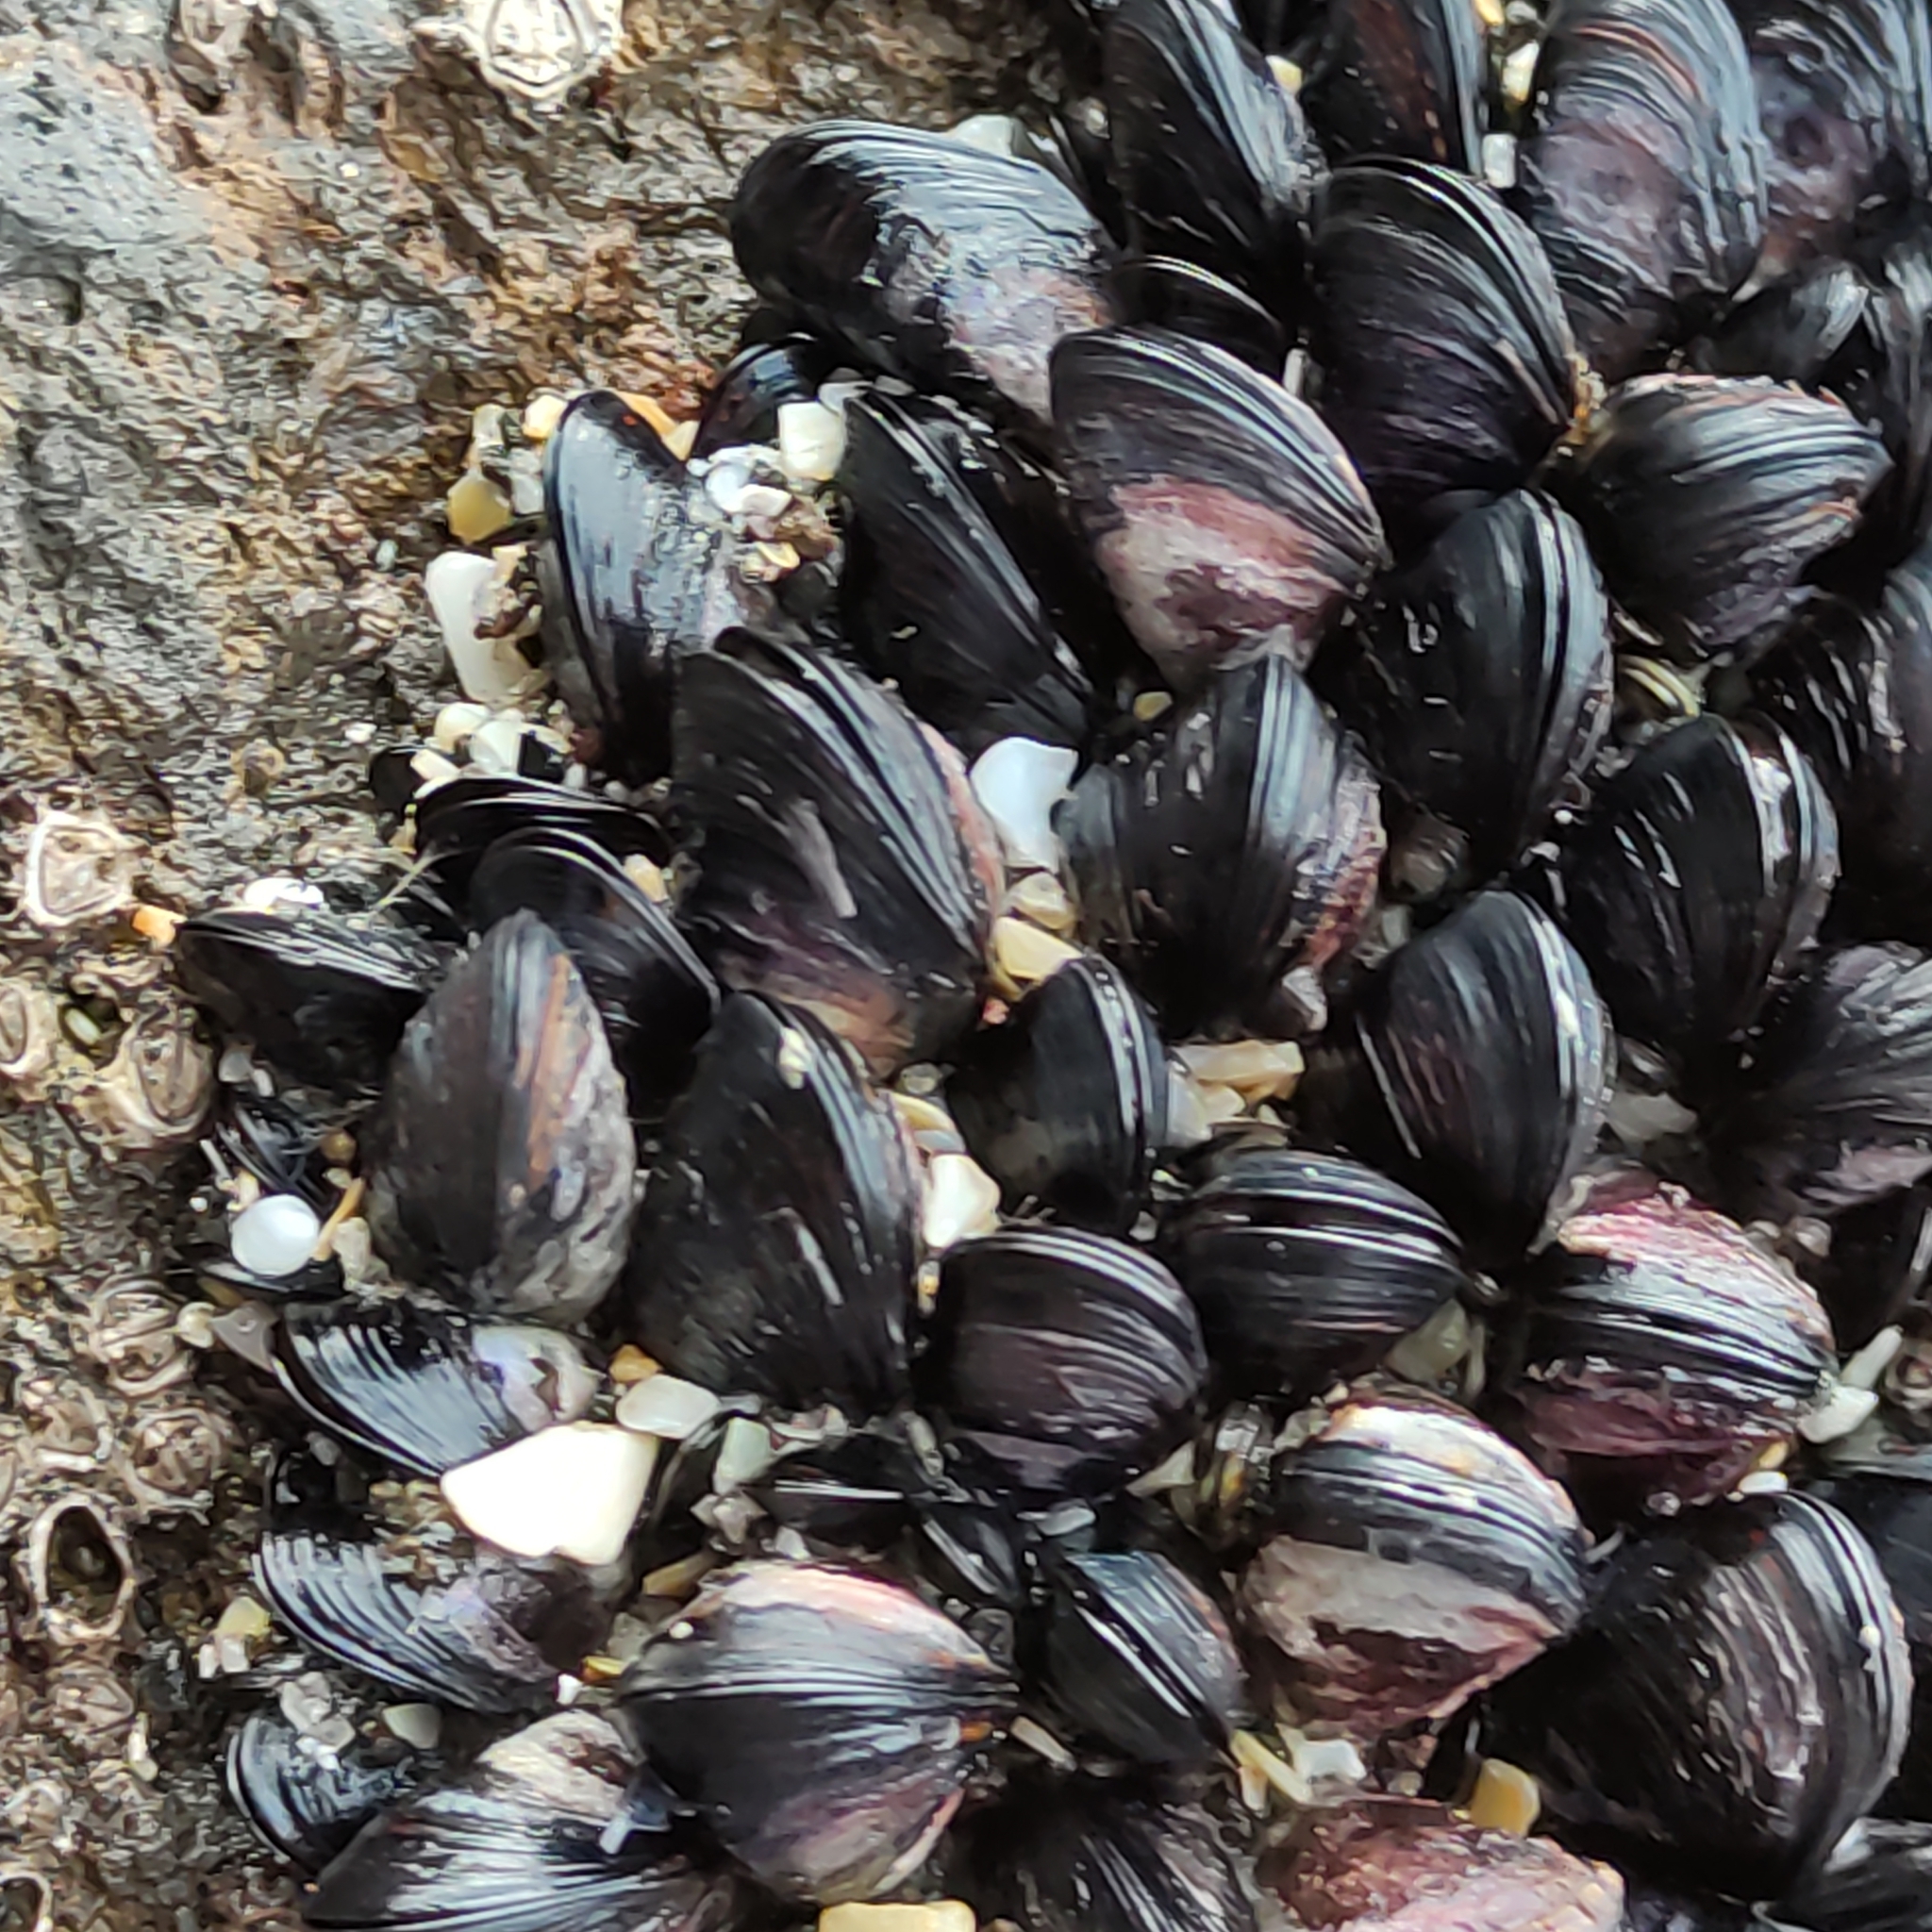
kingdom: Animalia
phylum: Mollusca
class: Bivalvia
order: Mytilida
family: Mytilidae
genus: Xenostrobus
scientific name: Xenostrobus neozelanicus
